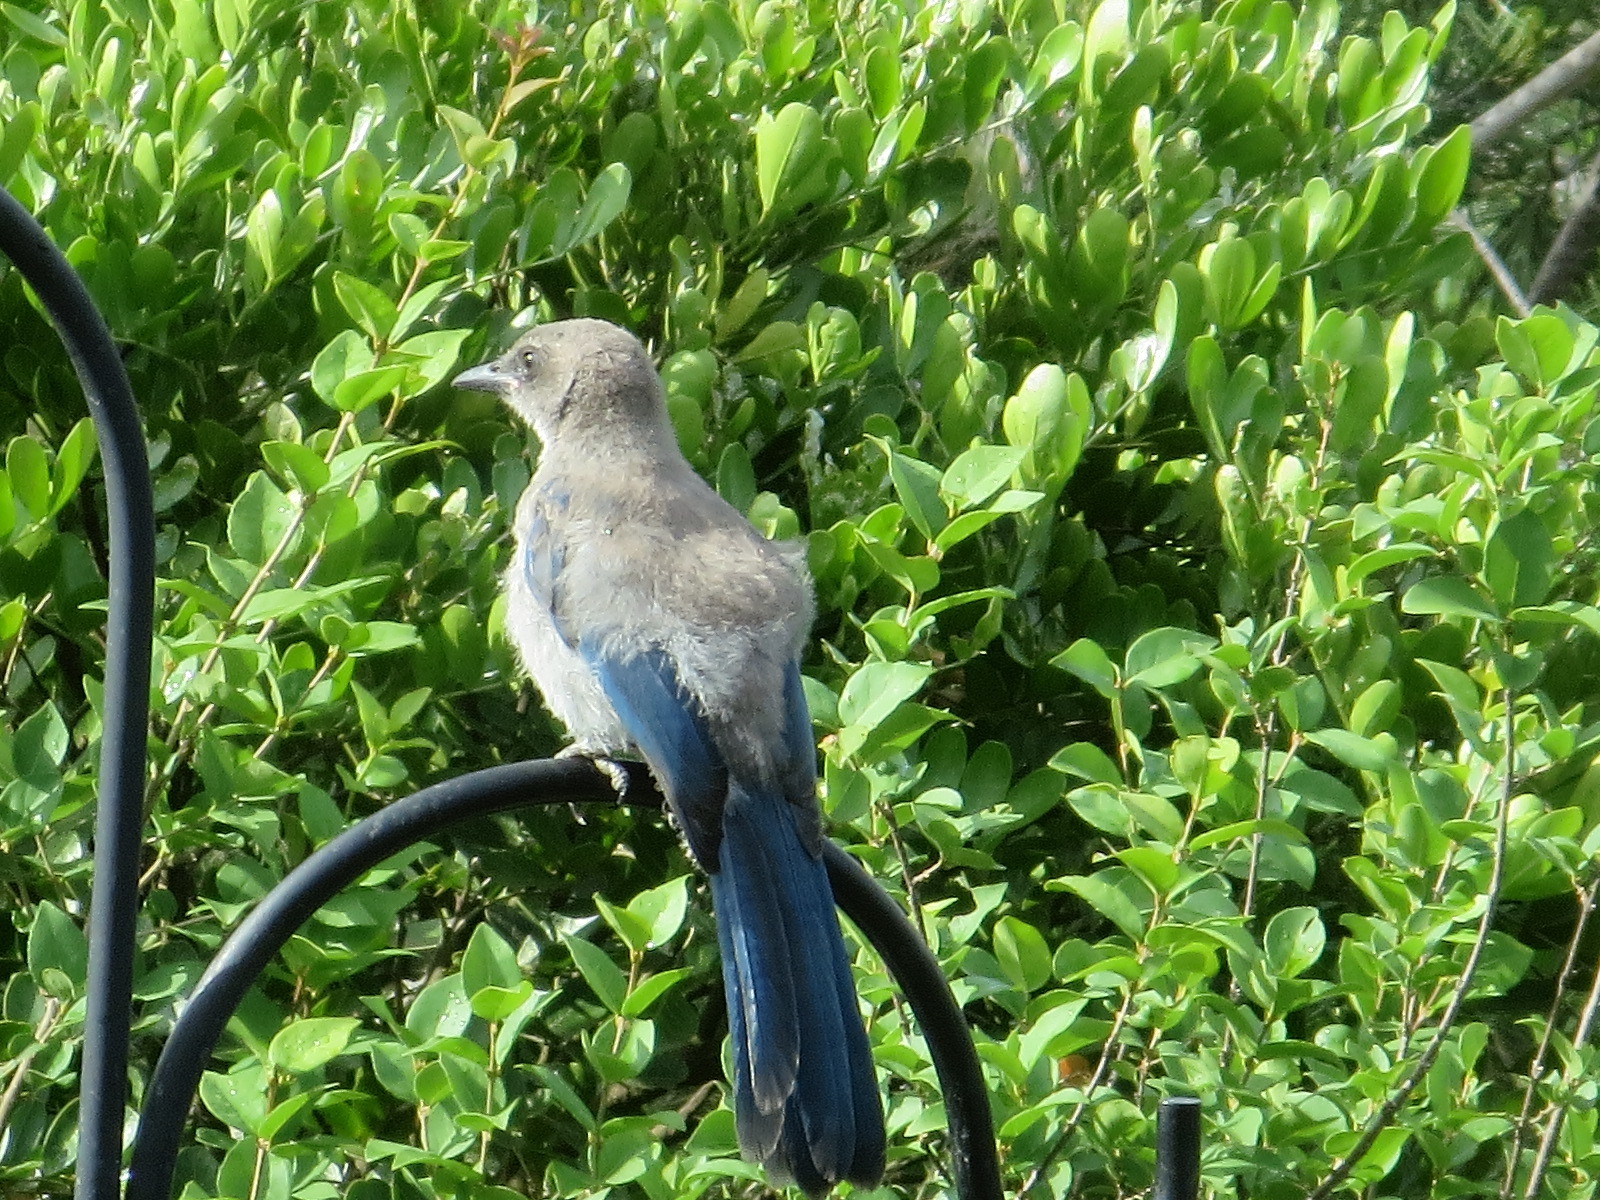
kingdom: Animalia
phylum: Chordata
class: Aves
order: Passeriformes
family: Corvidae
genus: Aphelocoma
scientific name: Aphelocoma woodhouseii
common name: Woodhouse's scrub-jay
